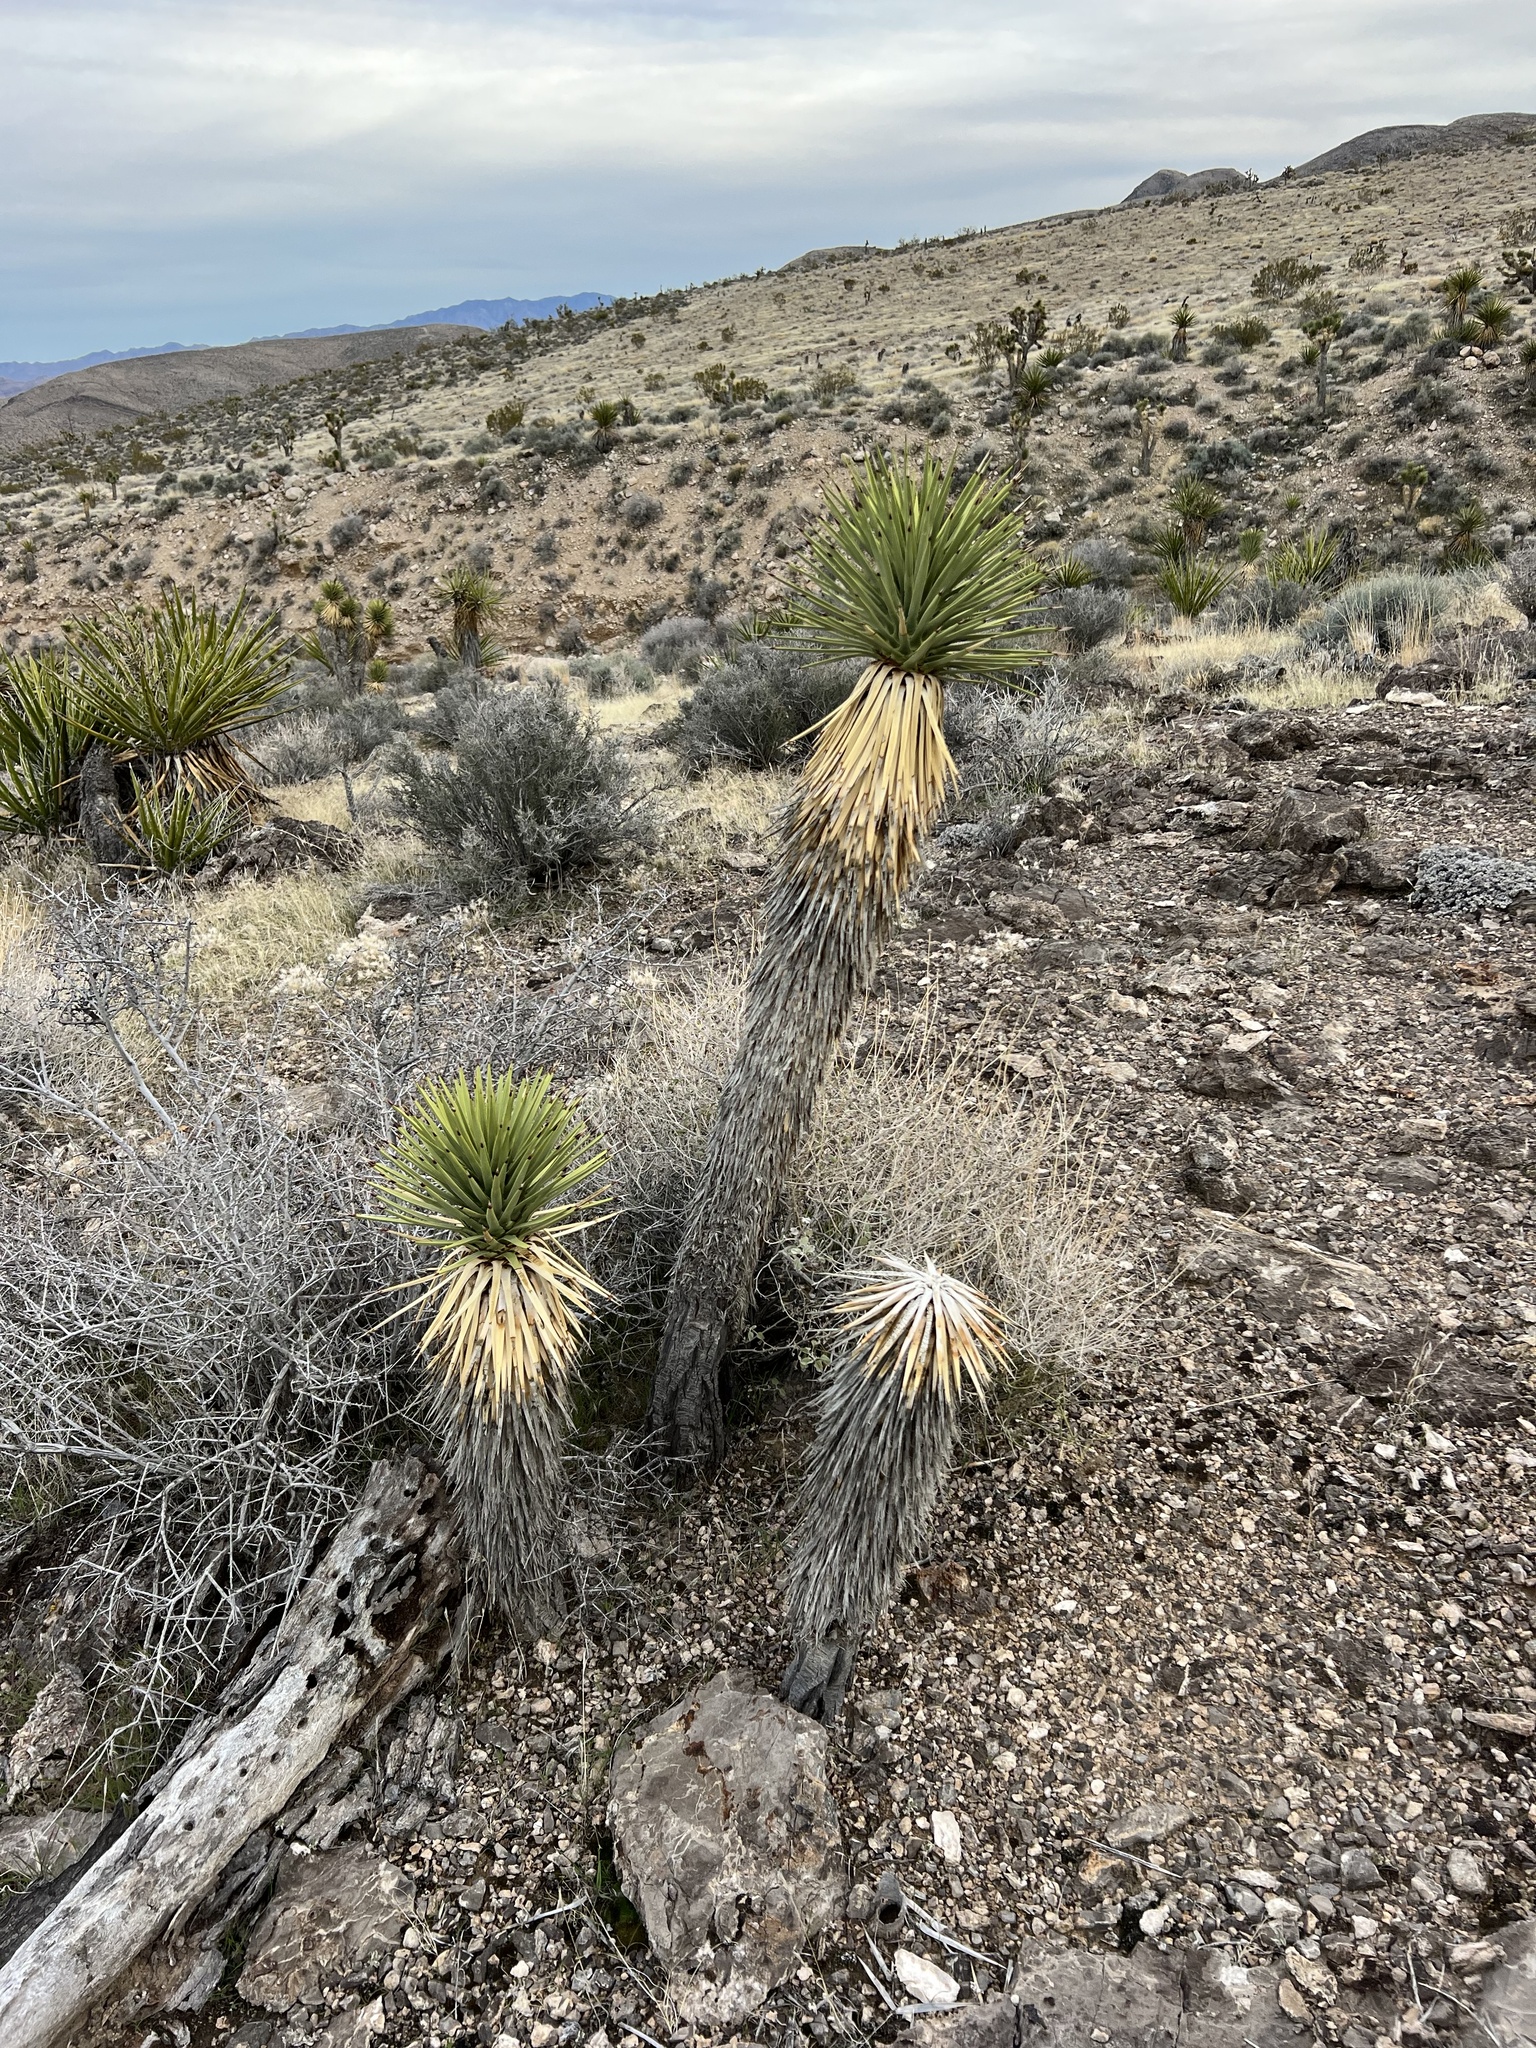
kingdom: Plantae
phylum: Tracheophyta
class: Liliopsida
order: Asparagales
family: Asparagaceae
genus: Yucca
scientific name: Yucca brevifolia
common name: Joshua tree
